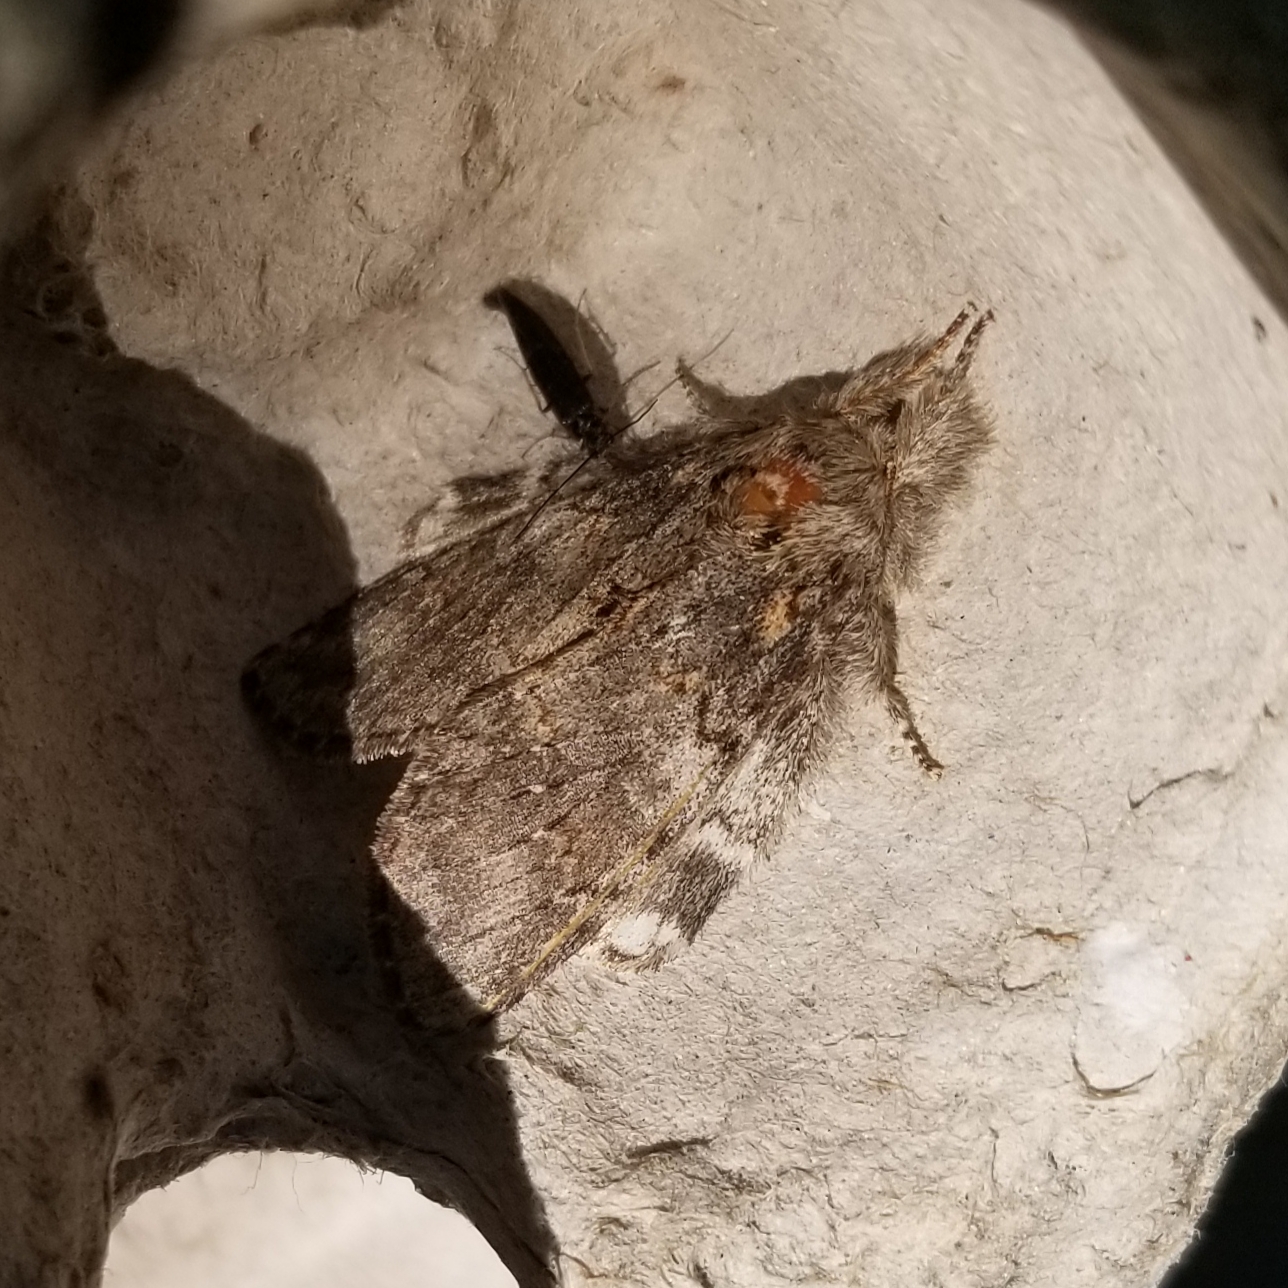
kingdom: Animalia
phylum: Arthropoda
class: Insecta
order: Lepidoptera
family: Notodontidae
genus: Peridea
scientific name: Peridea angulosa
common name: Angulose prominent
